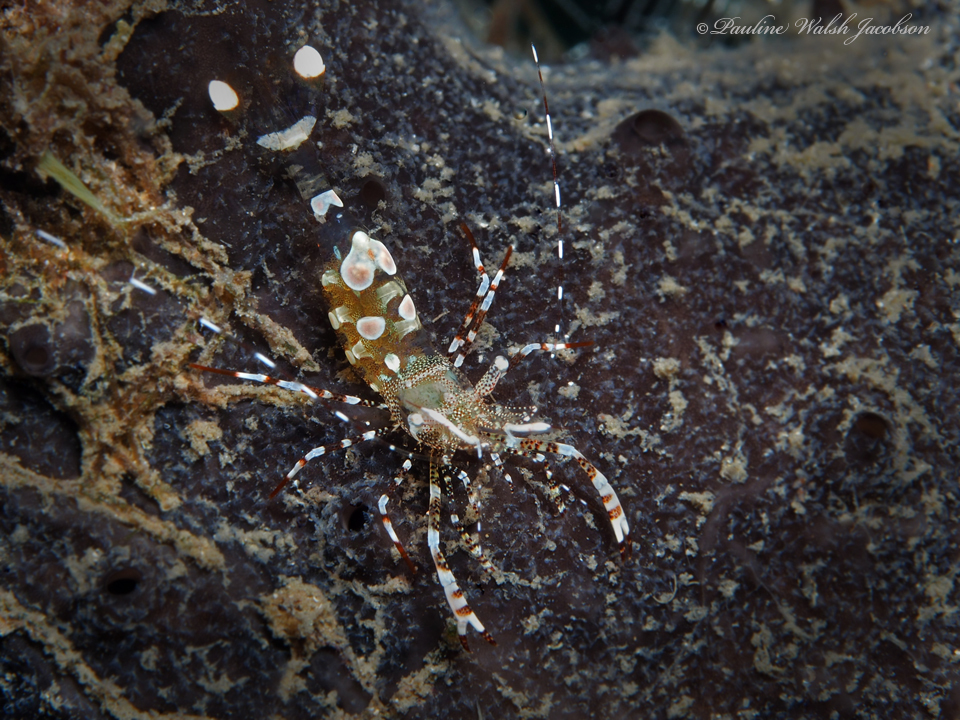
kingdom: Animalia
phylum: Arthropoda
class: Malacostraca
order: Decapoda
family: Palaemonidae
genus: Periclimenes
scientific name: Periclimenes yucatanicus
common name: Spotted cleaning shrimp
